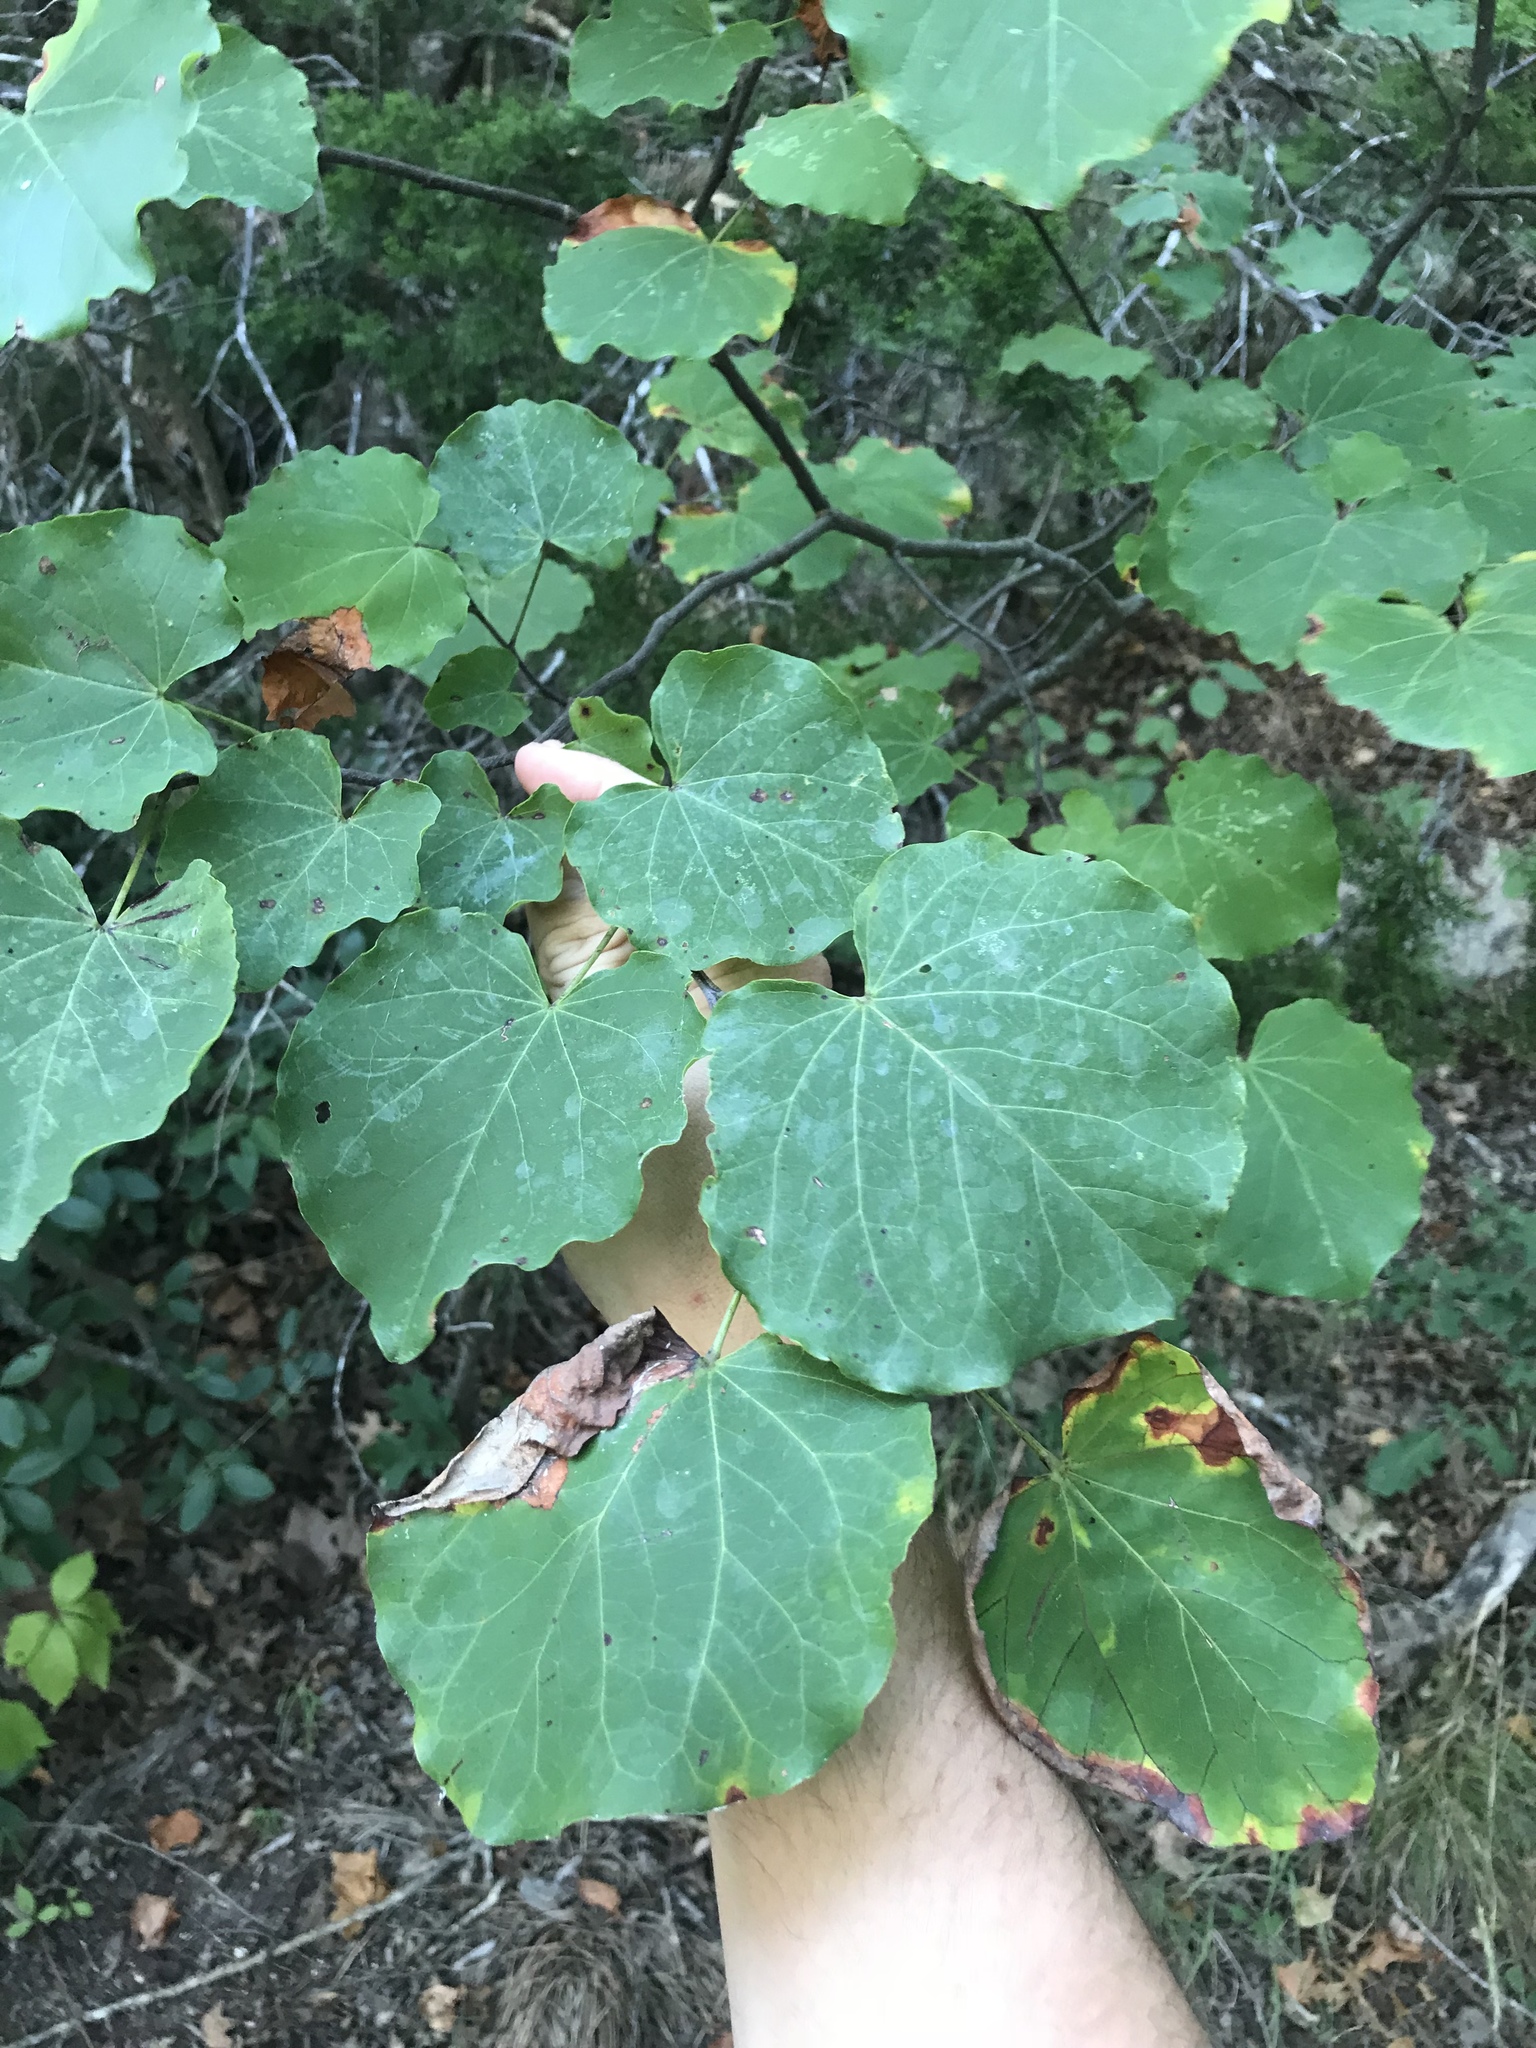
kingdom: Plantae
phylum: Tracheophyta
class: Magnoliopsida
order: Fabales
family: Fabaceae
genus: Cercis
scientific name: Cercis canadensis
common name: Eastern redbud
